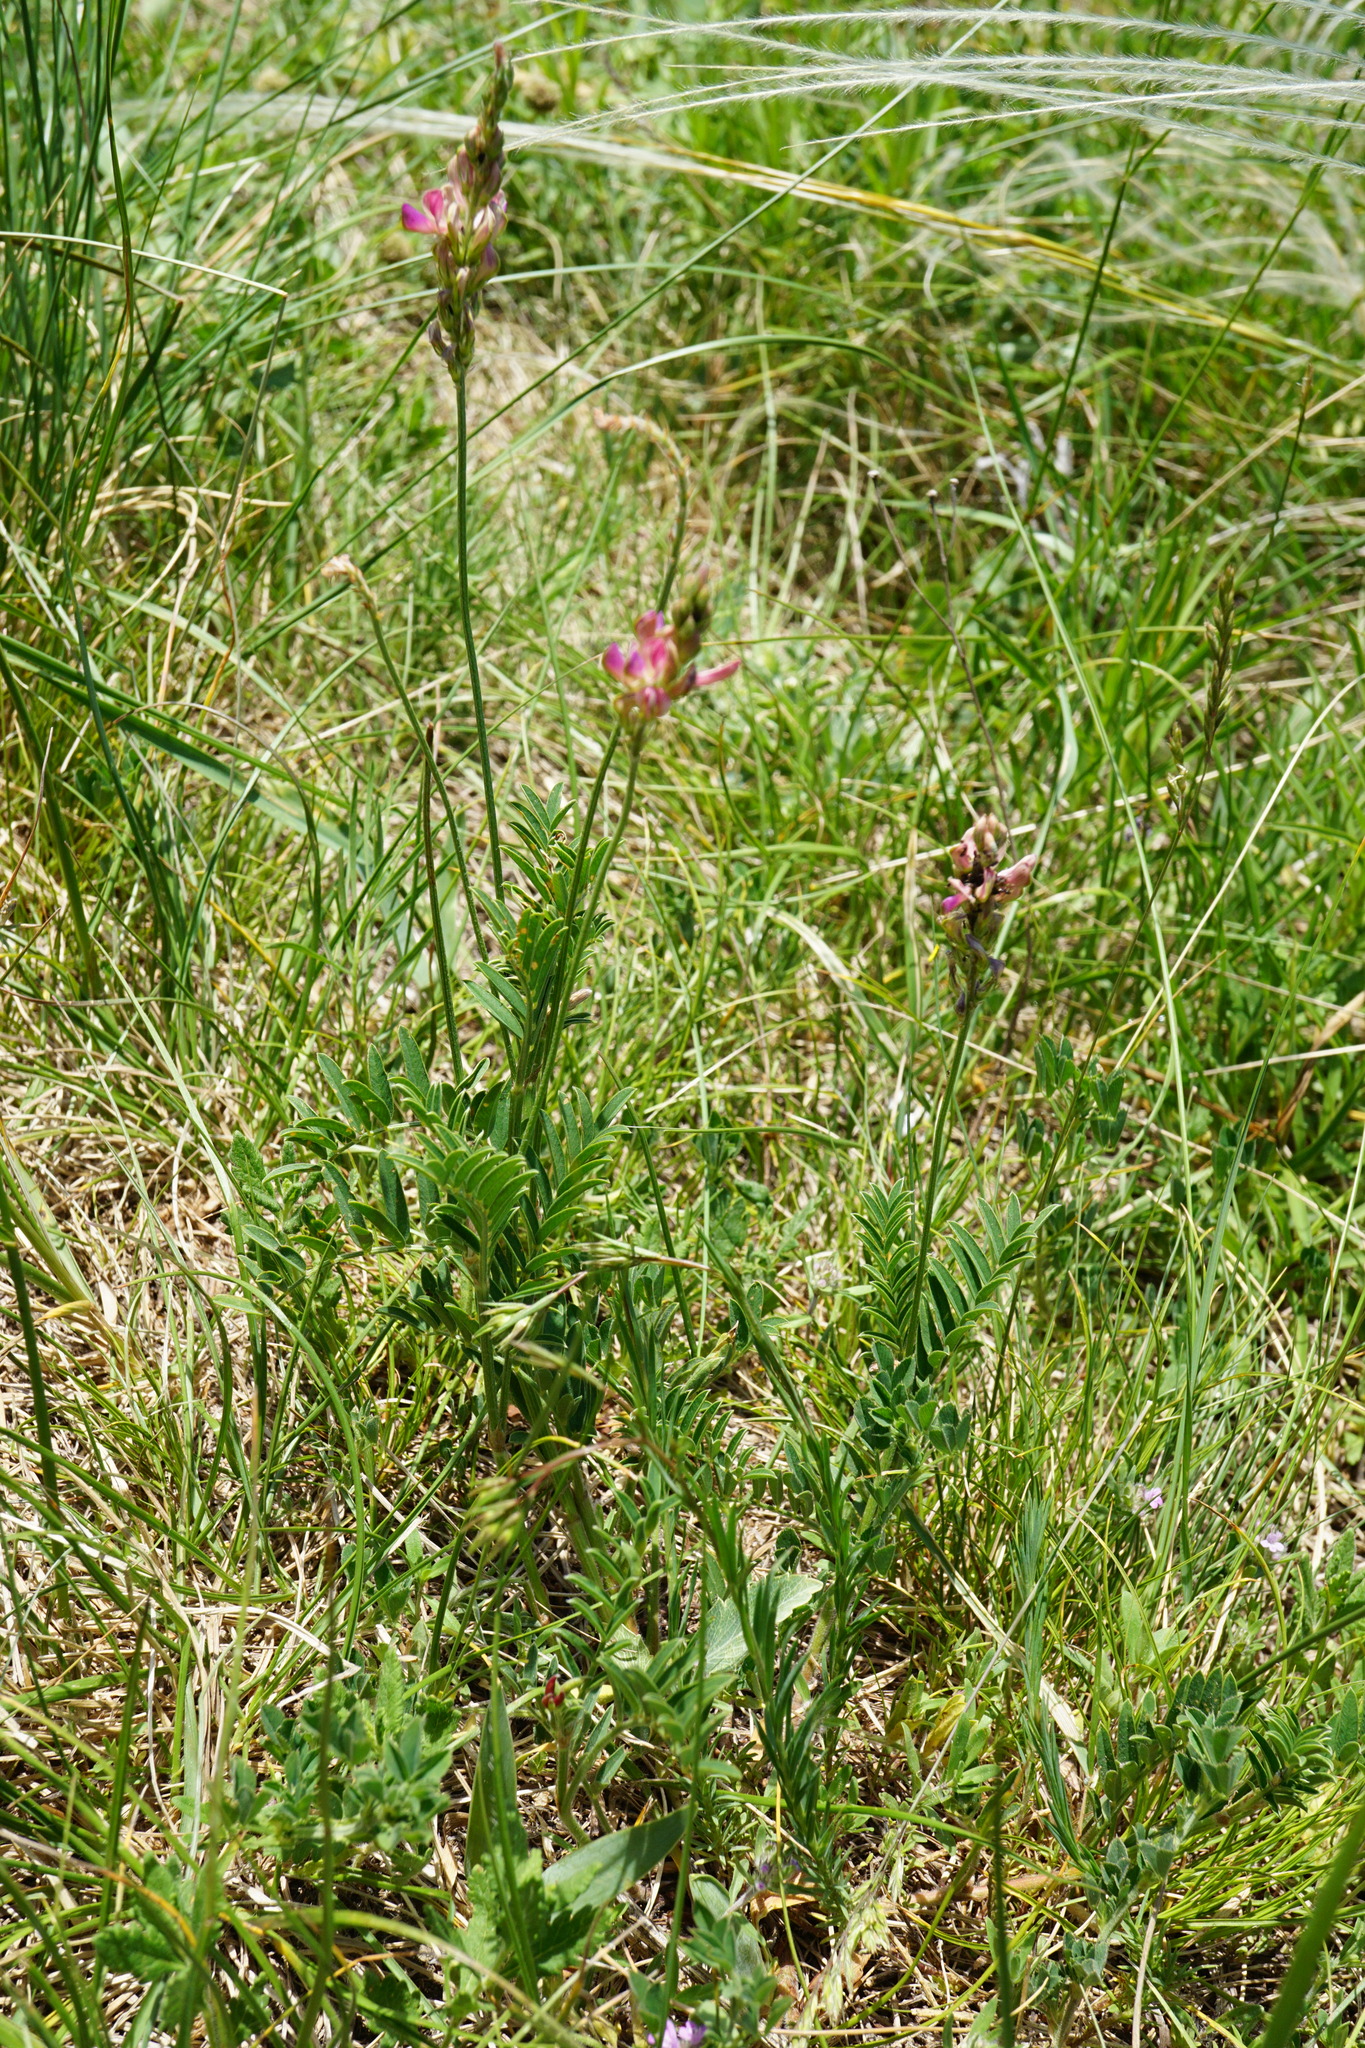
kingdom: Plantae
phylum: Tracheophyta
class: Magnoliopsida
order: Fabales
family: Fabaceae
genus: Onobrychis
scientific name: Onobrychis arenaria
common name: Sand esparcet
